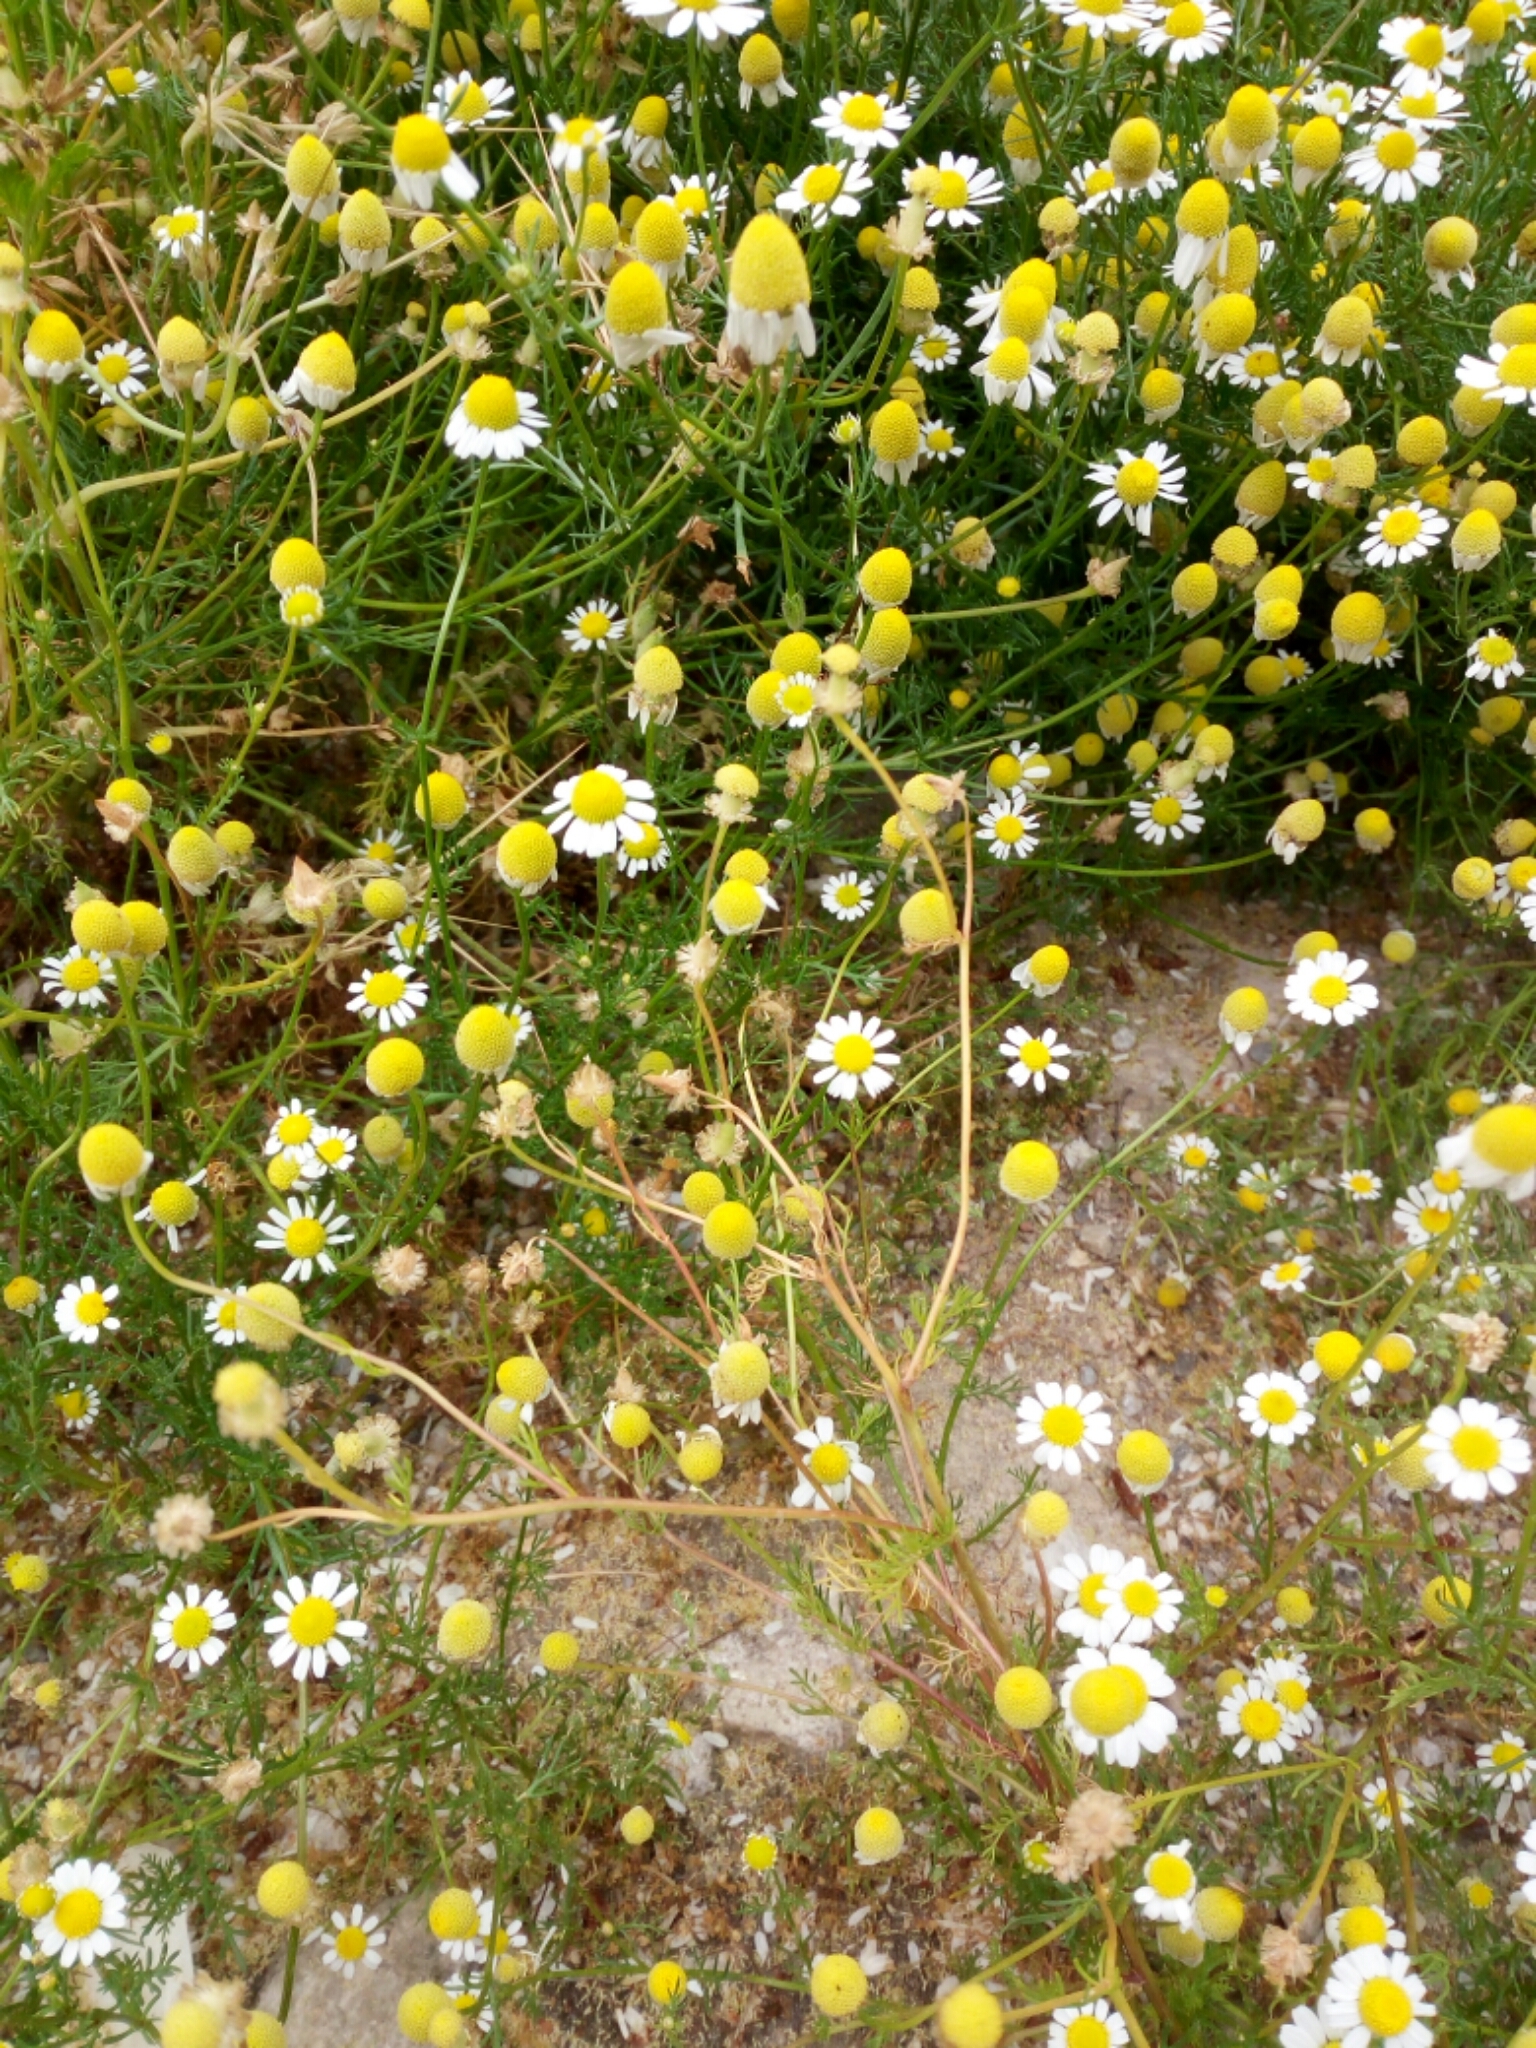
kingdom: Plantae
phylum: Tracheophyta
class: Magnoliopsida
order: Asterales
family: Asteraceae
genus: Matricaria
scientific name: Matricaria chamomilla
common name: Scented mayweed
